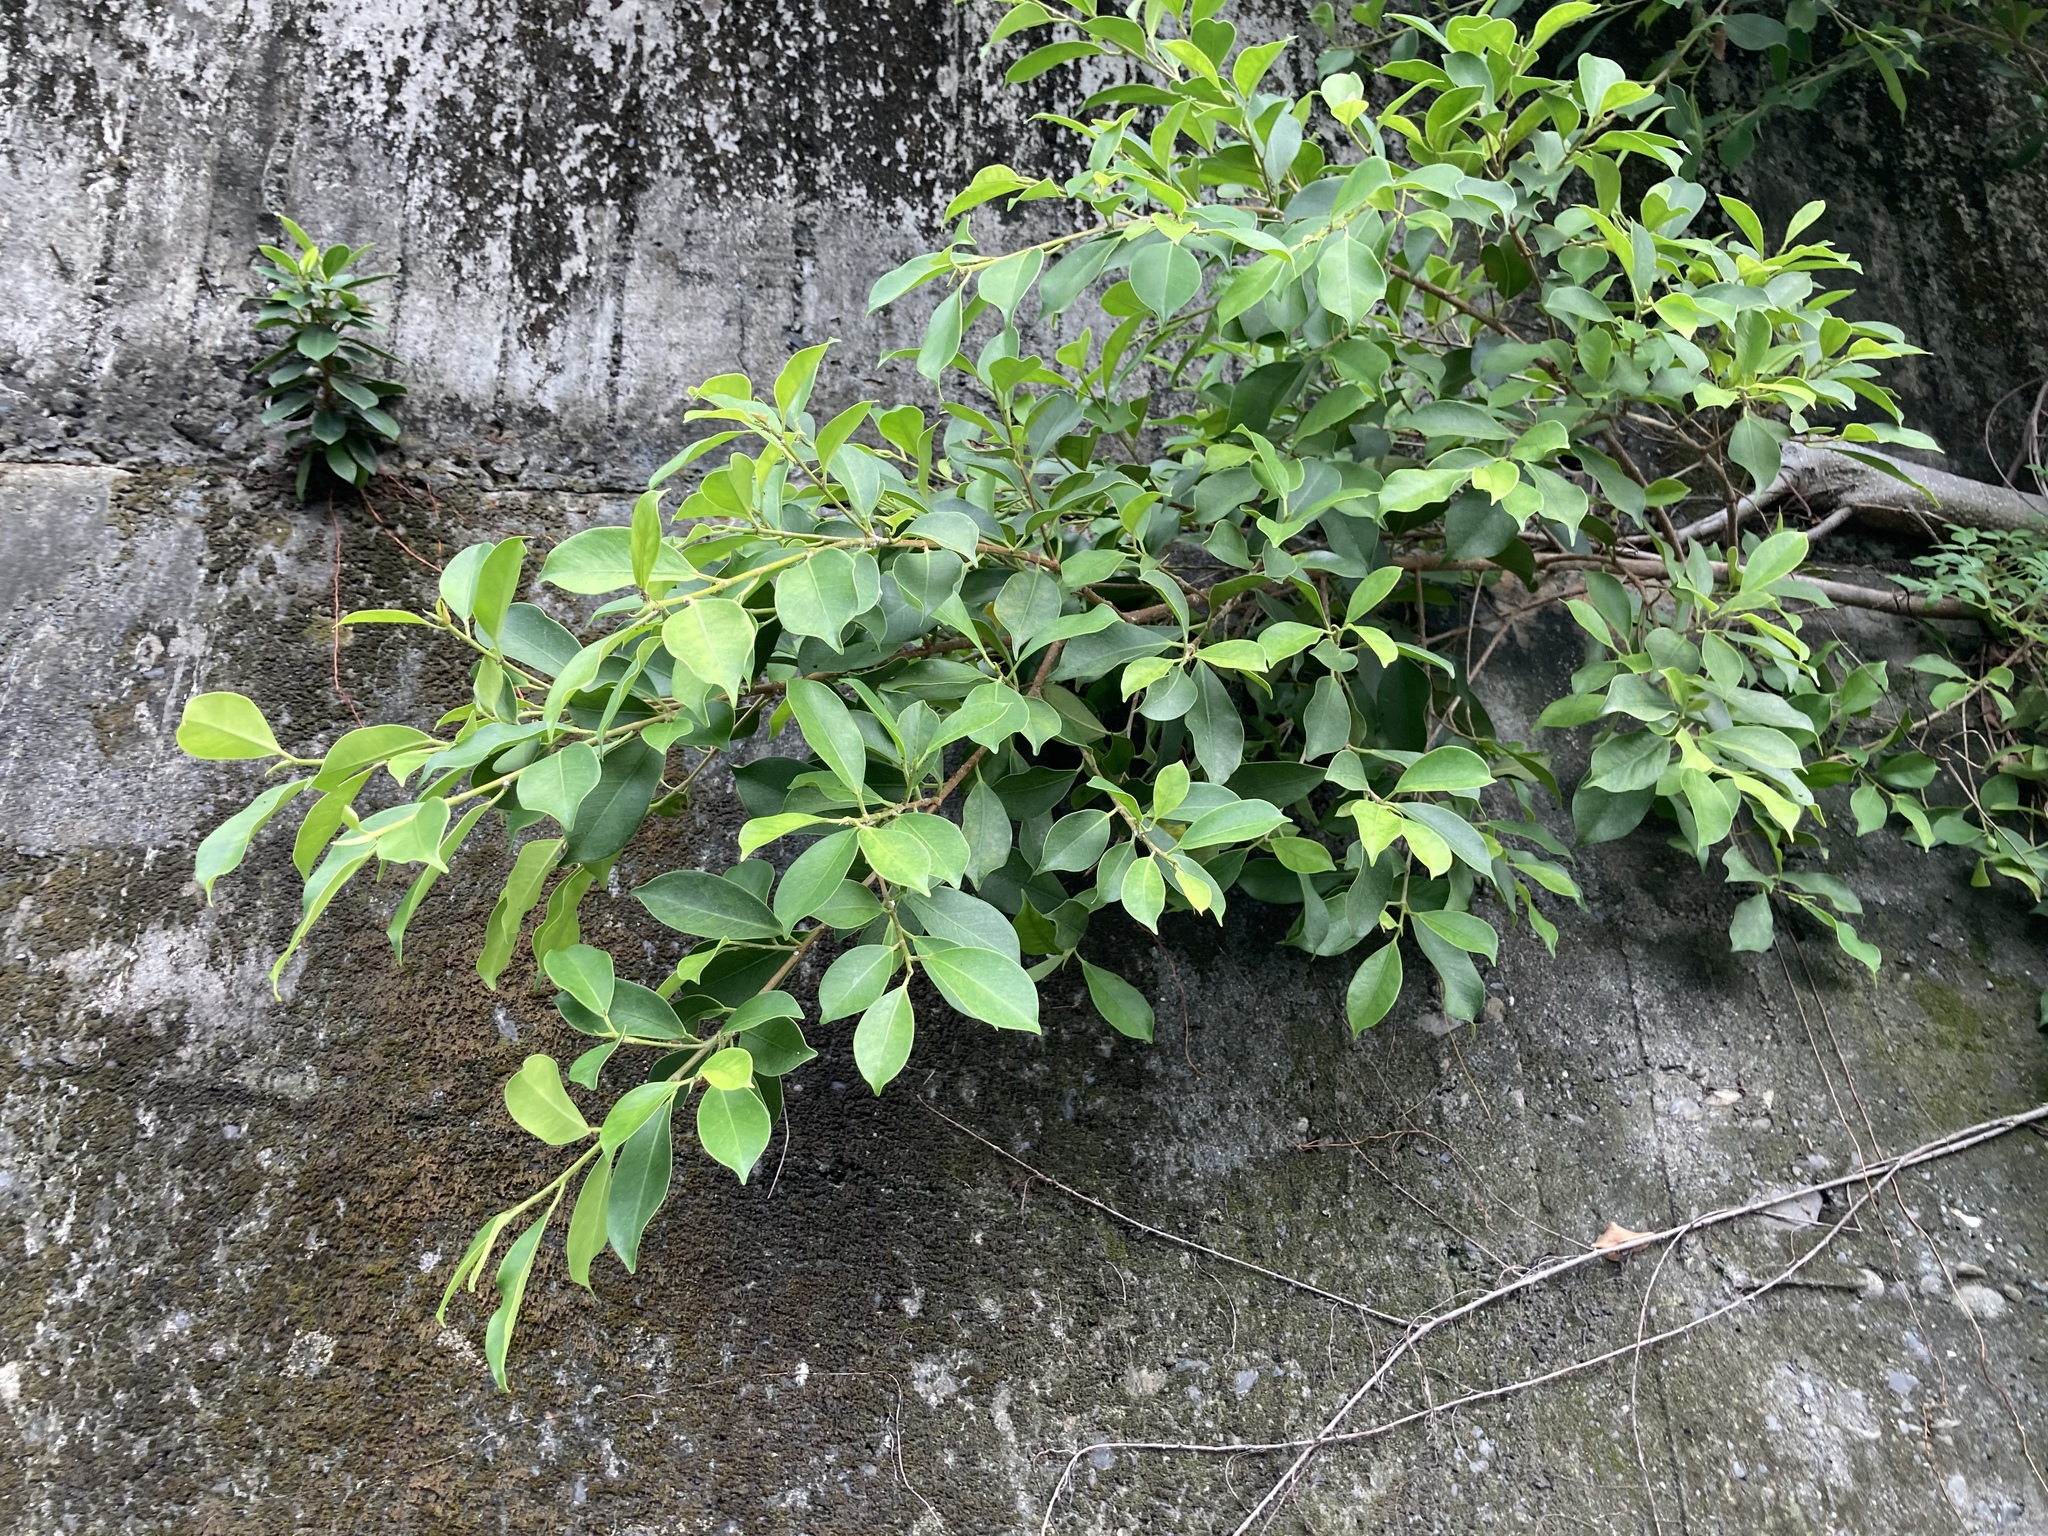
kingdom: Plantae
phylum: Tracheophyta
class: Magnoliopsida
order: Rosales
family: Moraceae
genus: Ficus
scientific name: Ficus microcarpa
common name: Chinese banyan
